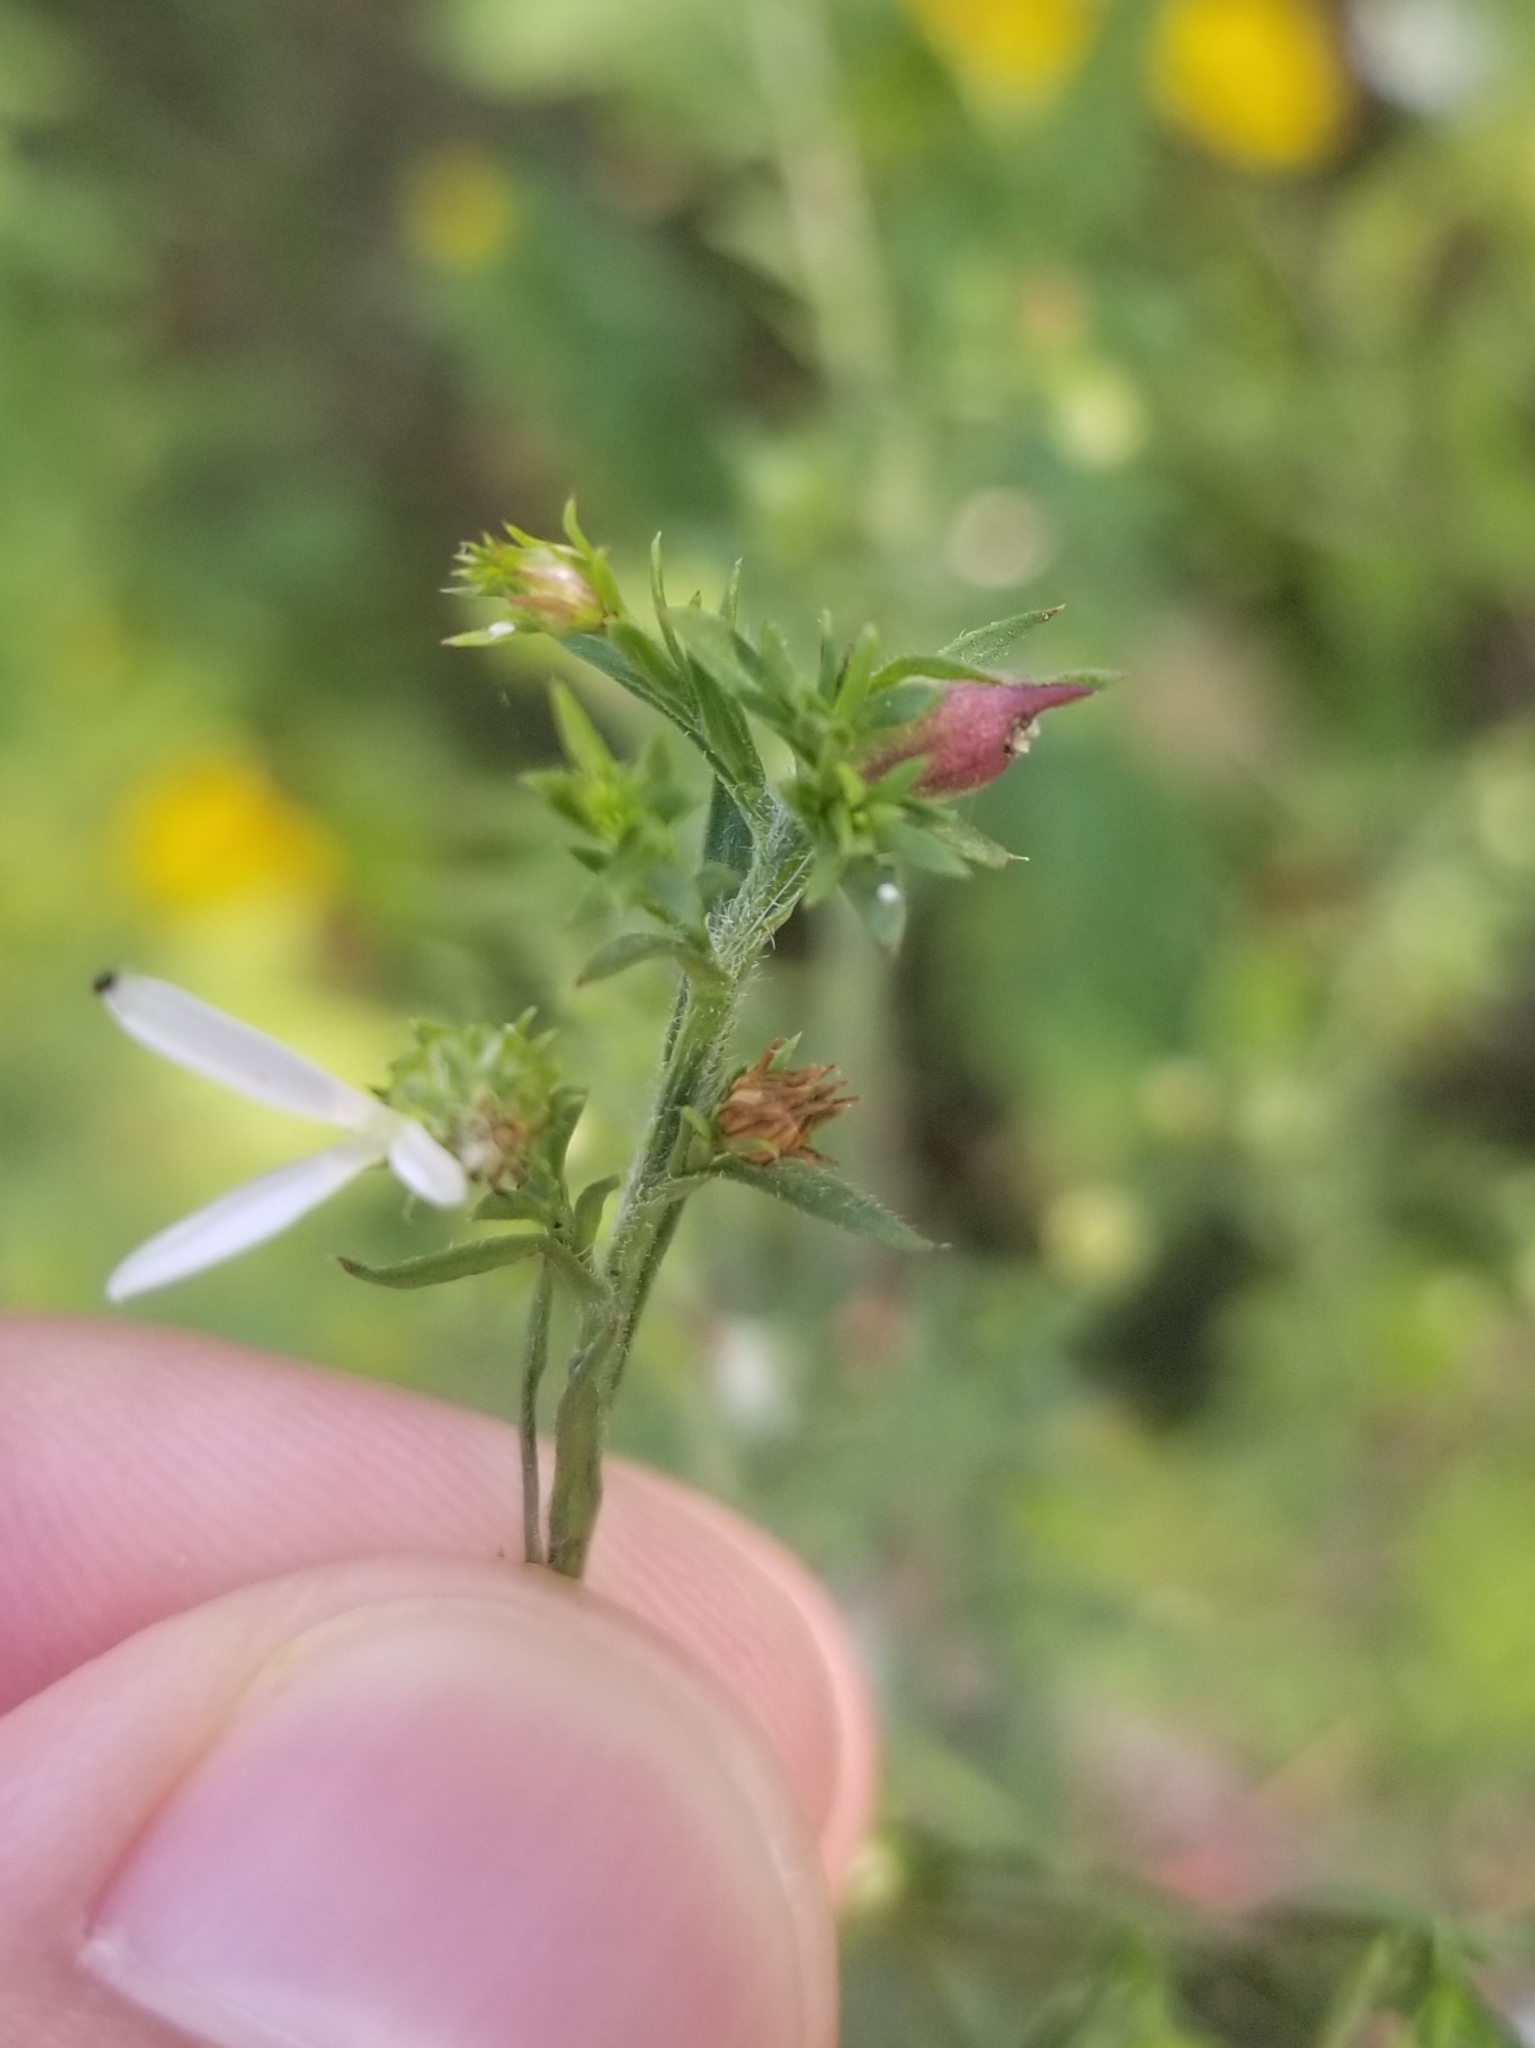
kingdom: Animalia
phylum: Arthropoda
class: Insecta
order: Diptera
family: Cecidomyiidae
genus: Asphondylia
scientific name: Asphondylia imbricata
